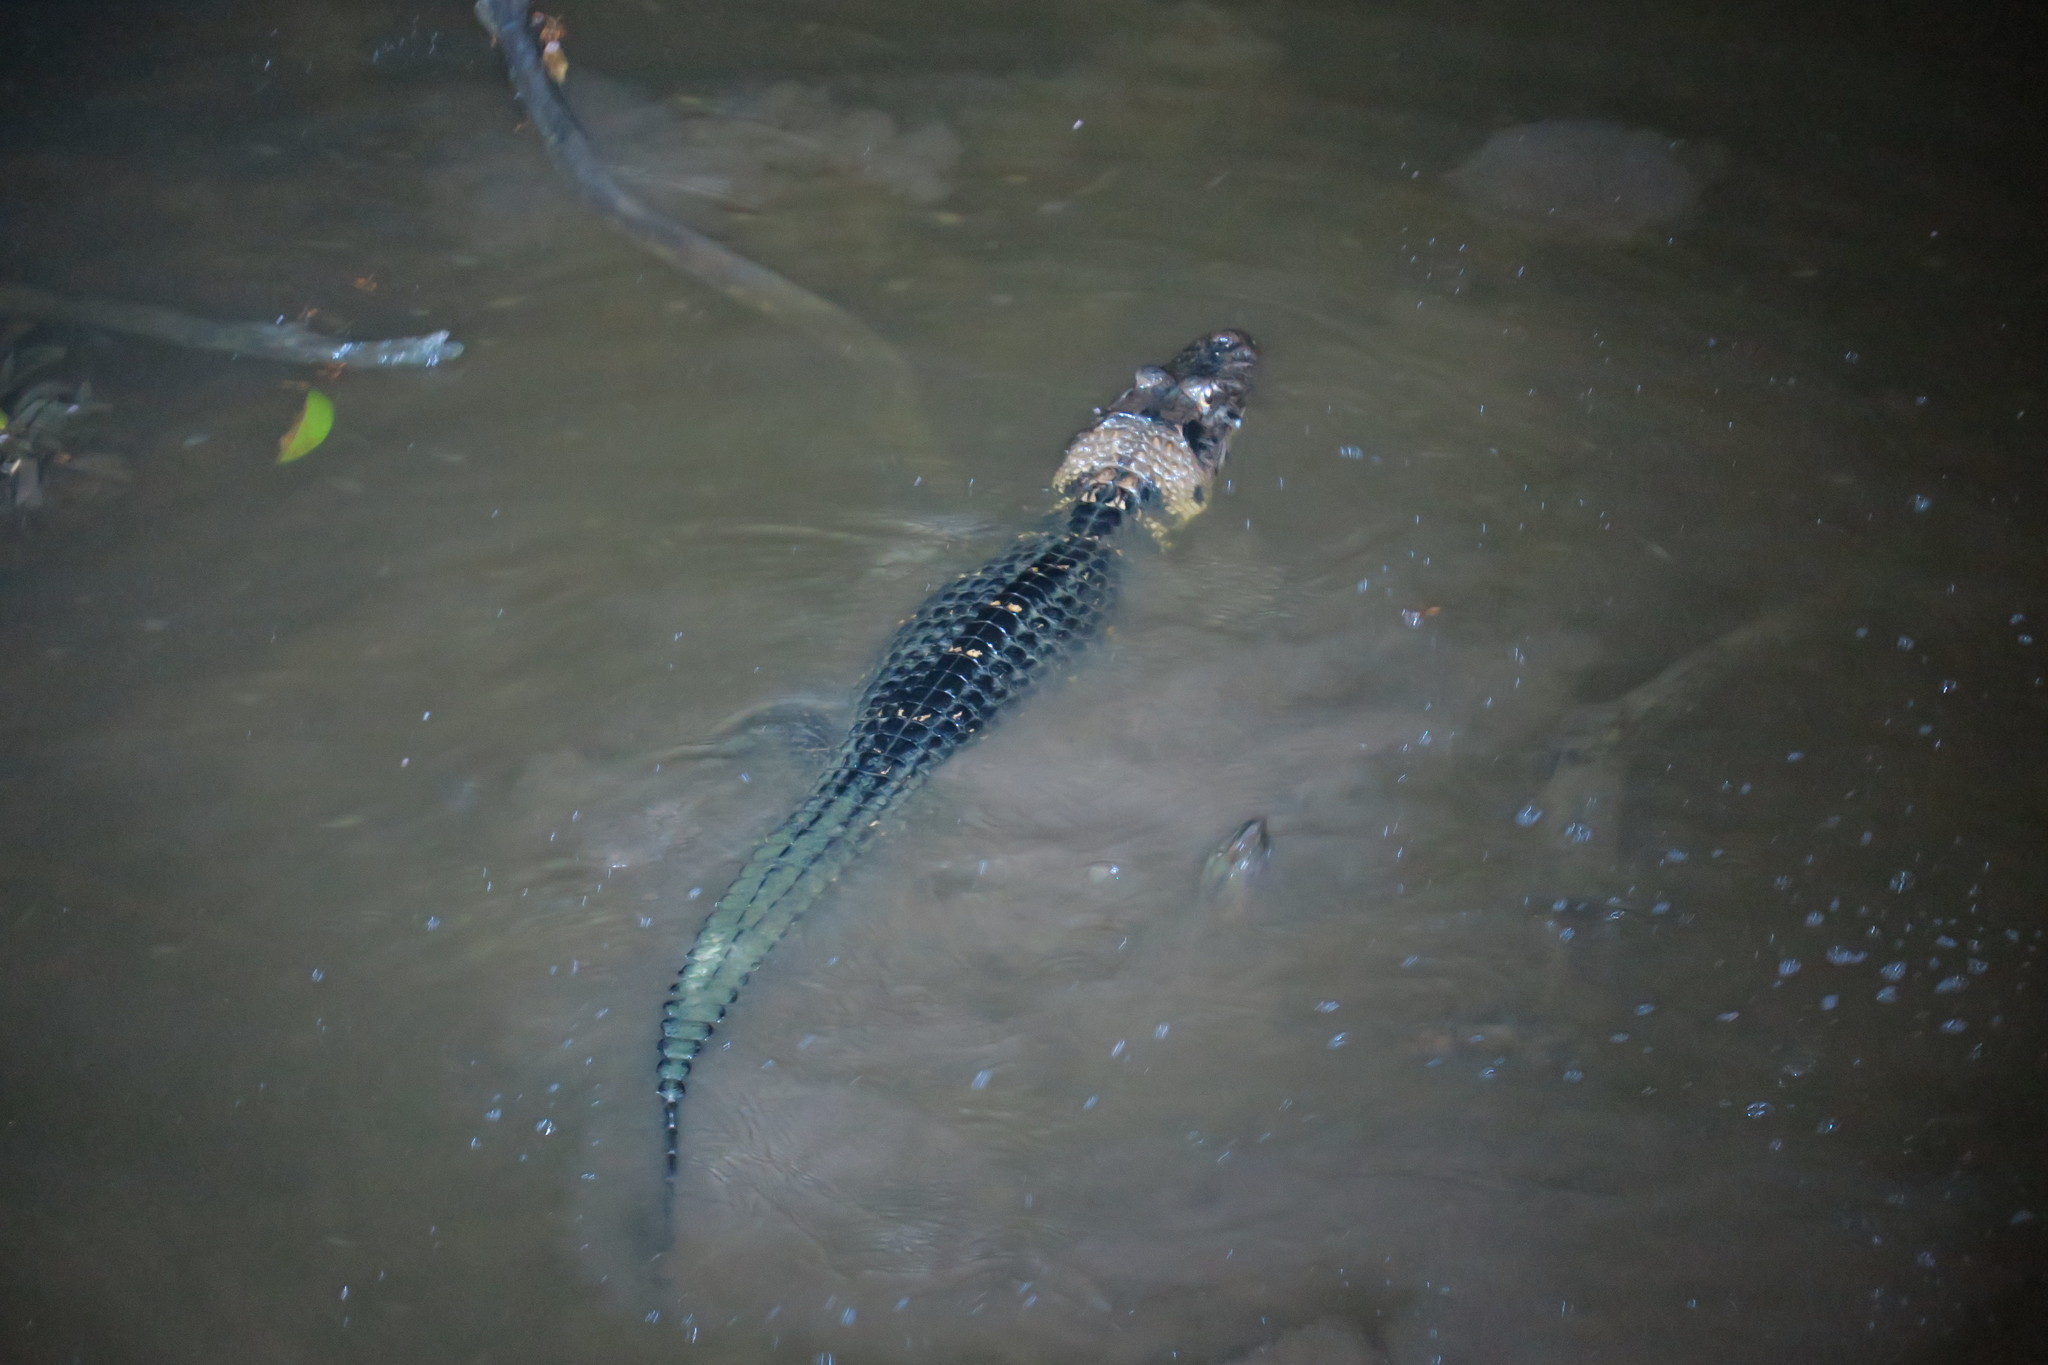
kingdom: Animalia
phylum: Chordata
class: Crocodylia
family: Alligatoridae
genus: Melanosuchus
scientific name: Melanosuchus niger
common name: Black caiman
